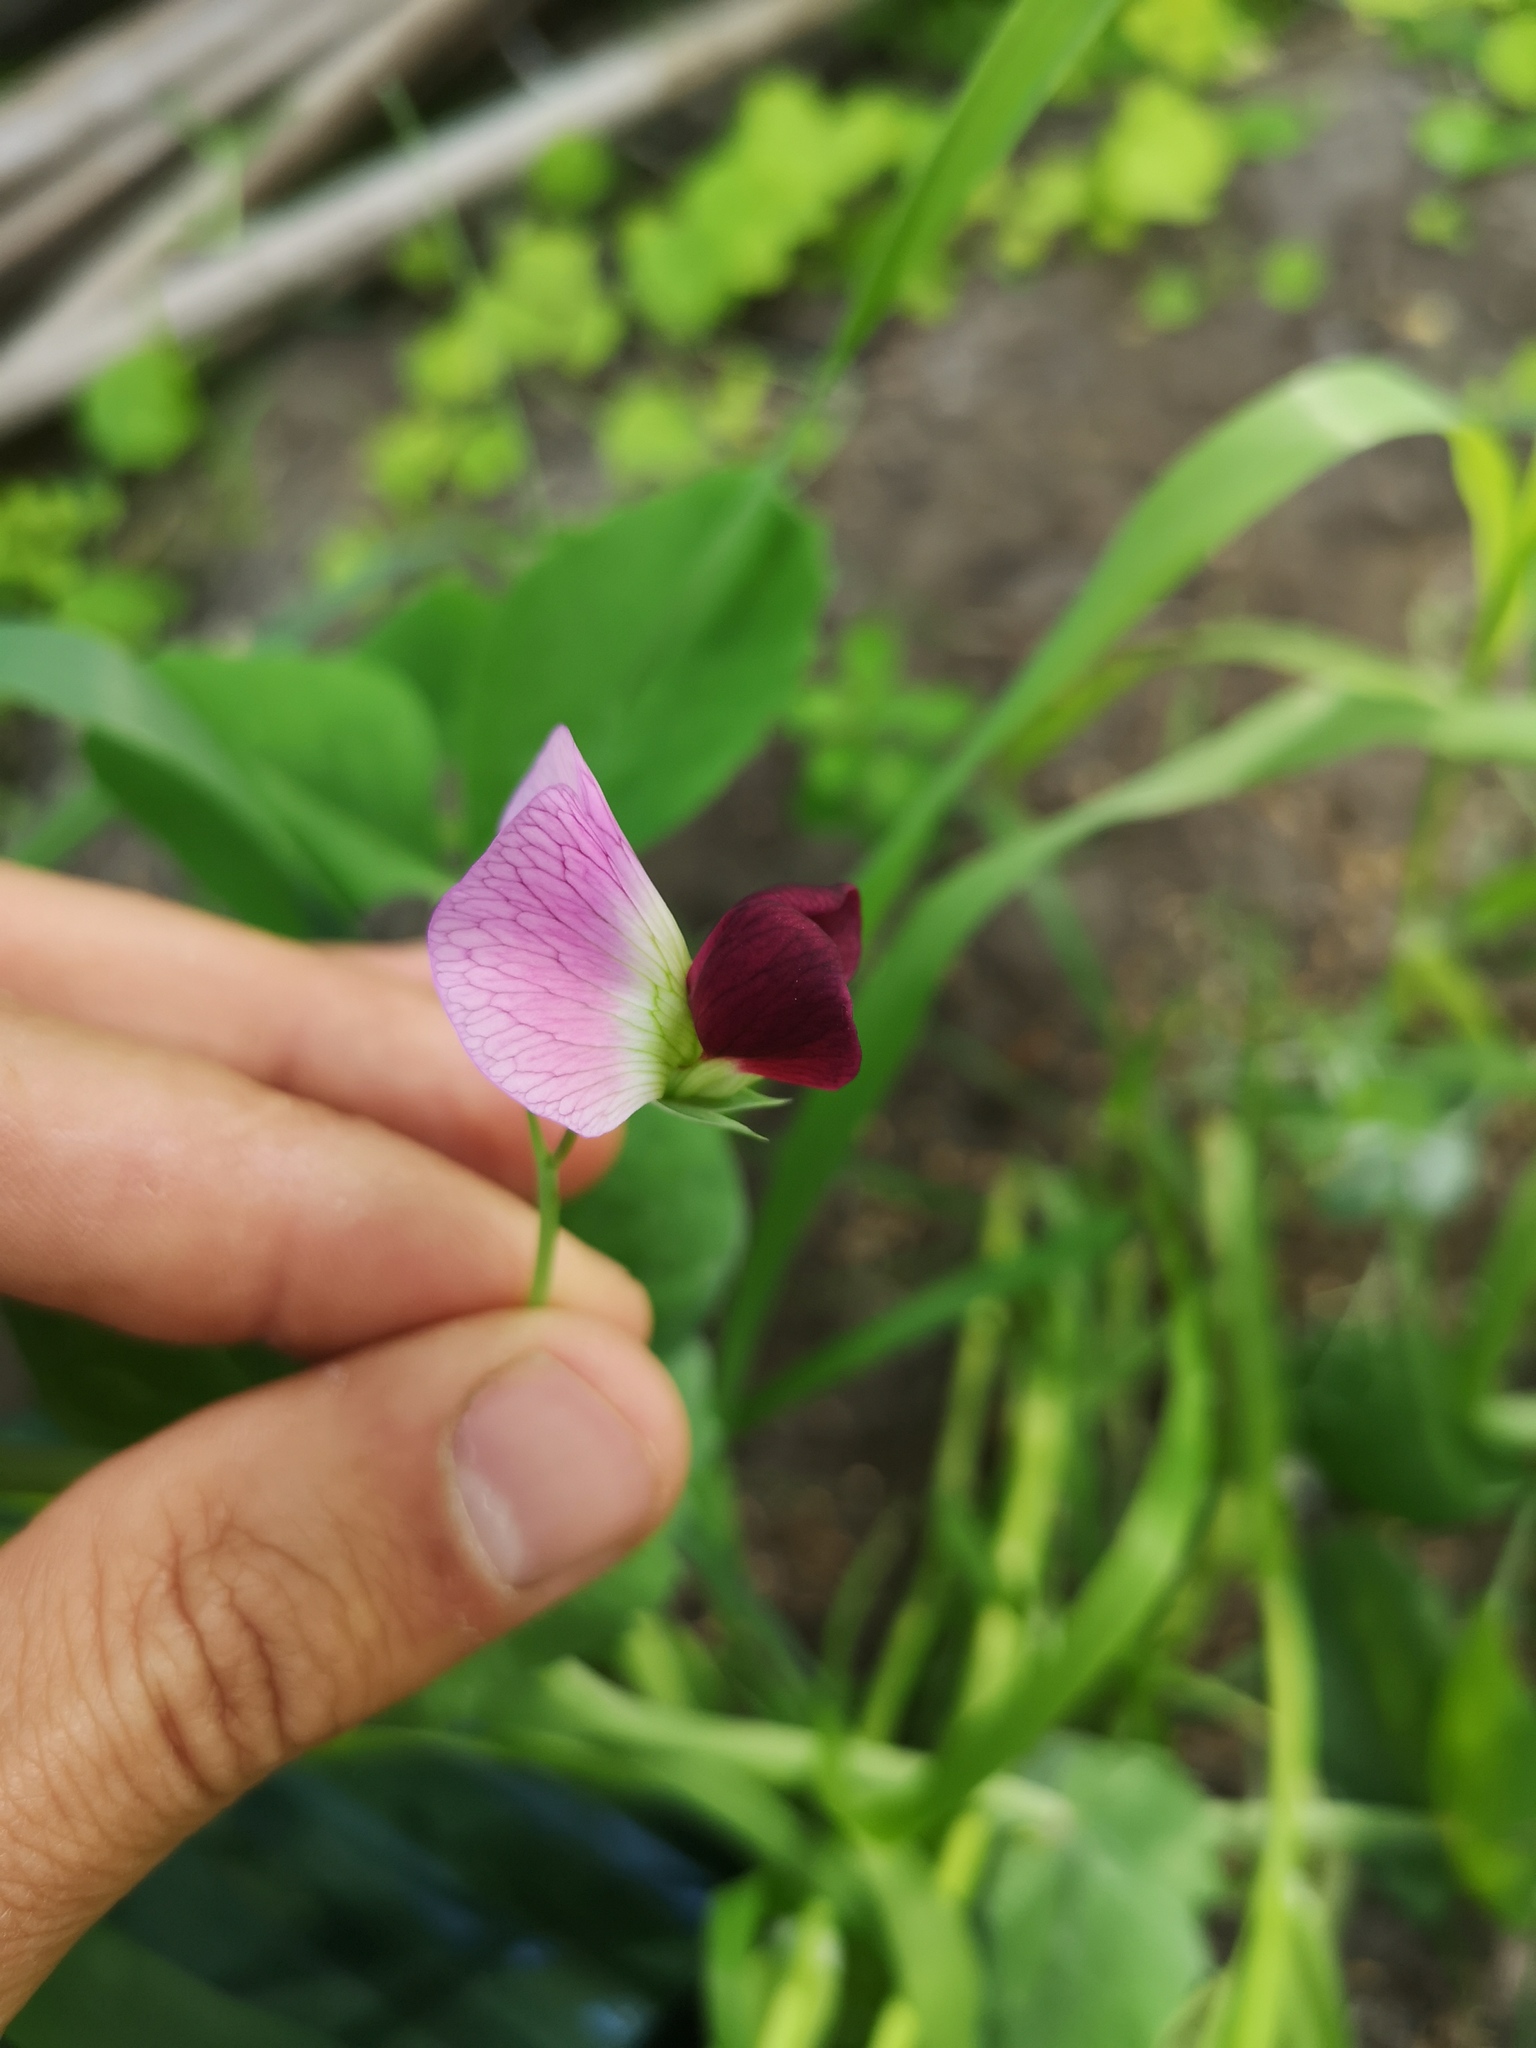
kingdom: Plantae
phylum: Tracheophyta
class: Magnoliopsida
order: Fabales
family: Fabaceae
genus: Lathyrus
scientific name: Lathyrus oleraceus
